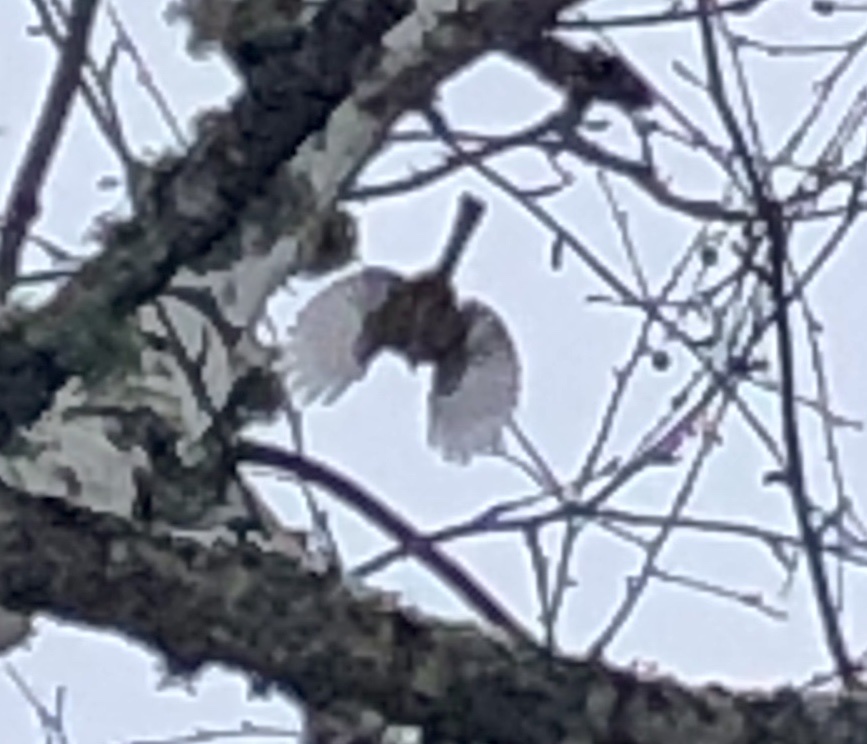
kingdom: Animalia
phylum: Chordata
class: Aves
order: Passeriformes
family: Paridae
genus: Poecile
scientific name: Poecile atricapillus
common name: Black-capped chickadee
